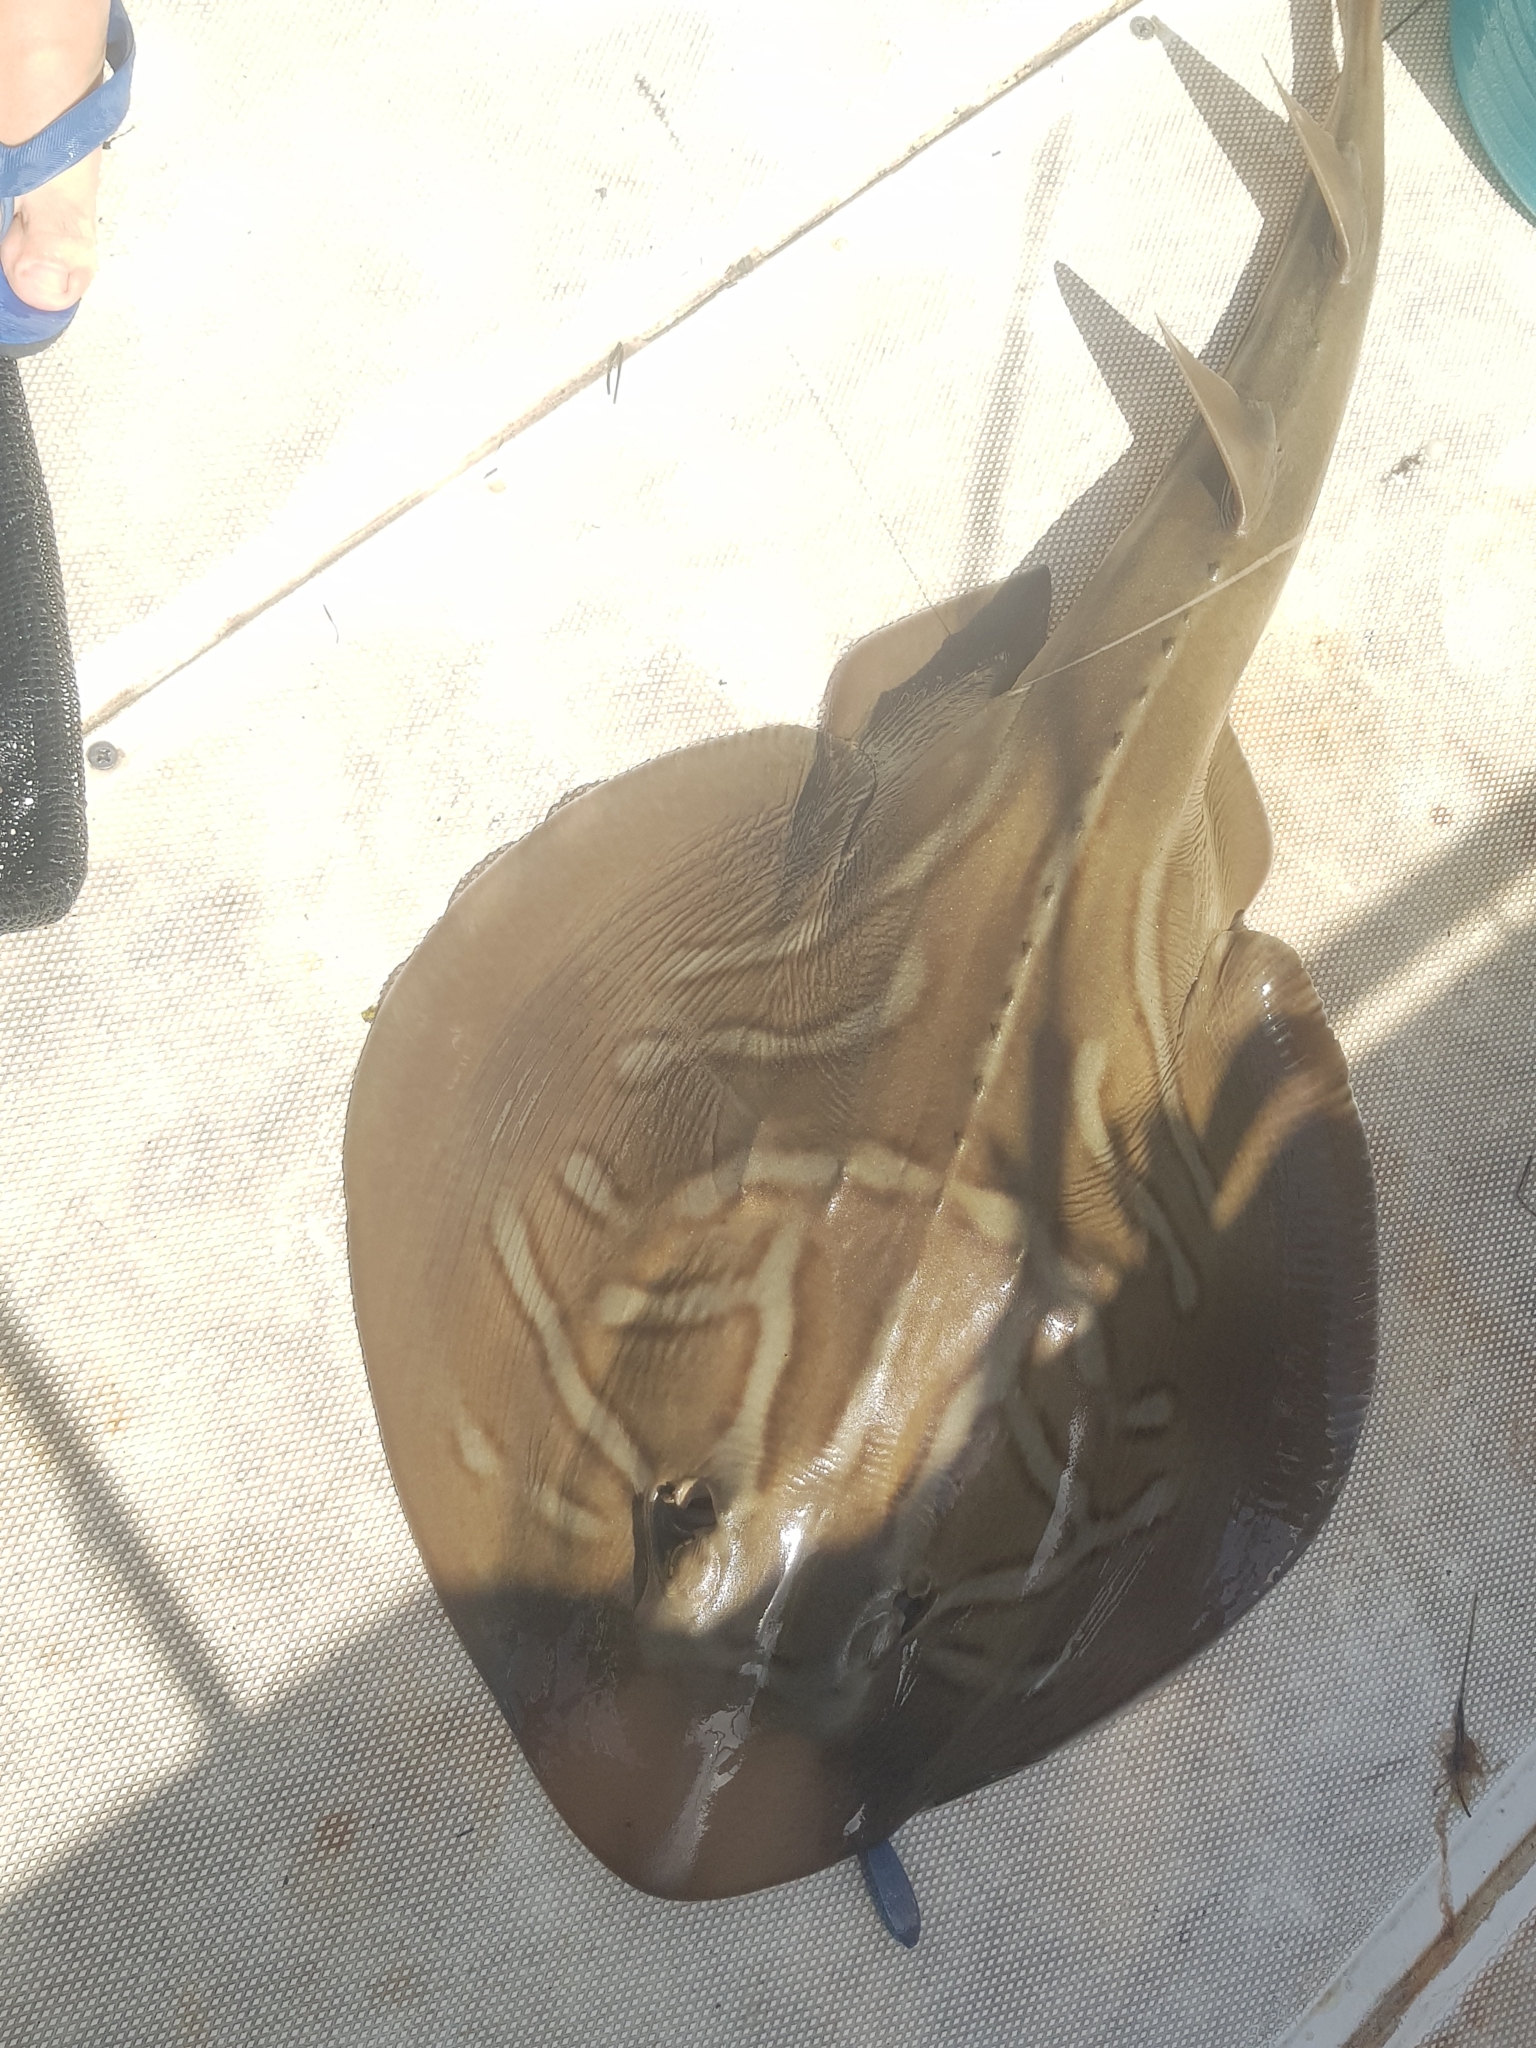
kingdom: Animalia
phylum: Chordata
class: Elasmobranchii
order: Rhinopristiformes
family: Rhinobatidae
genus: Trygonorrhina
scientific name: Trygonorrhina dumerilii
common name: Banjo shark
